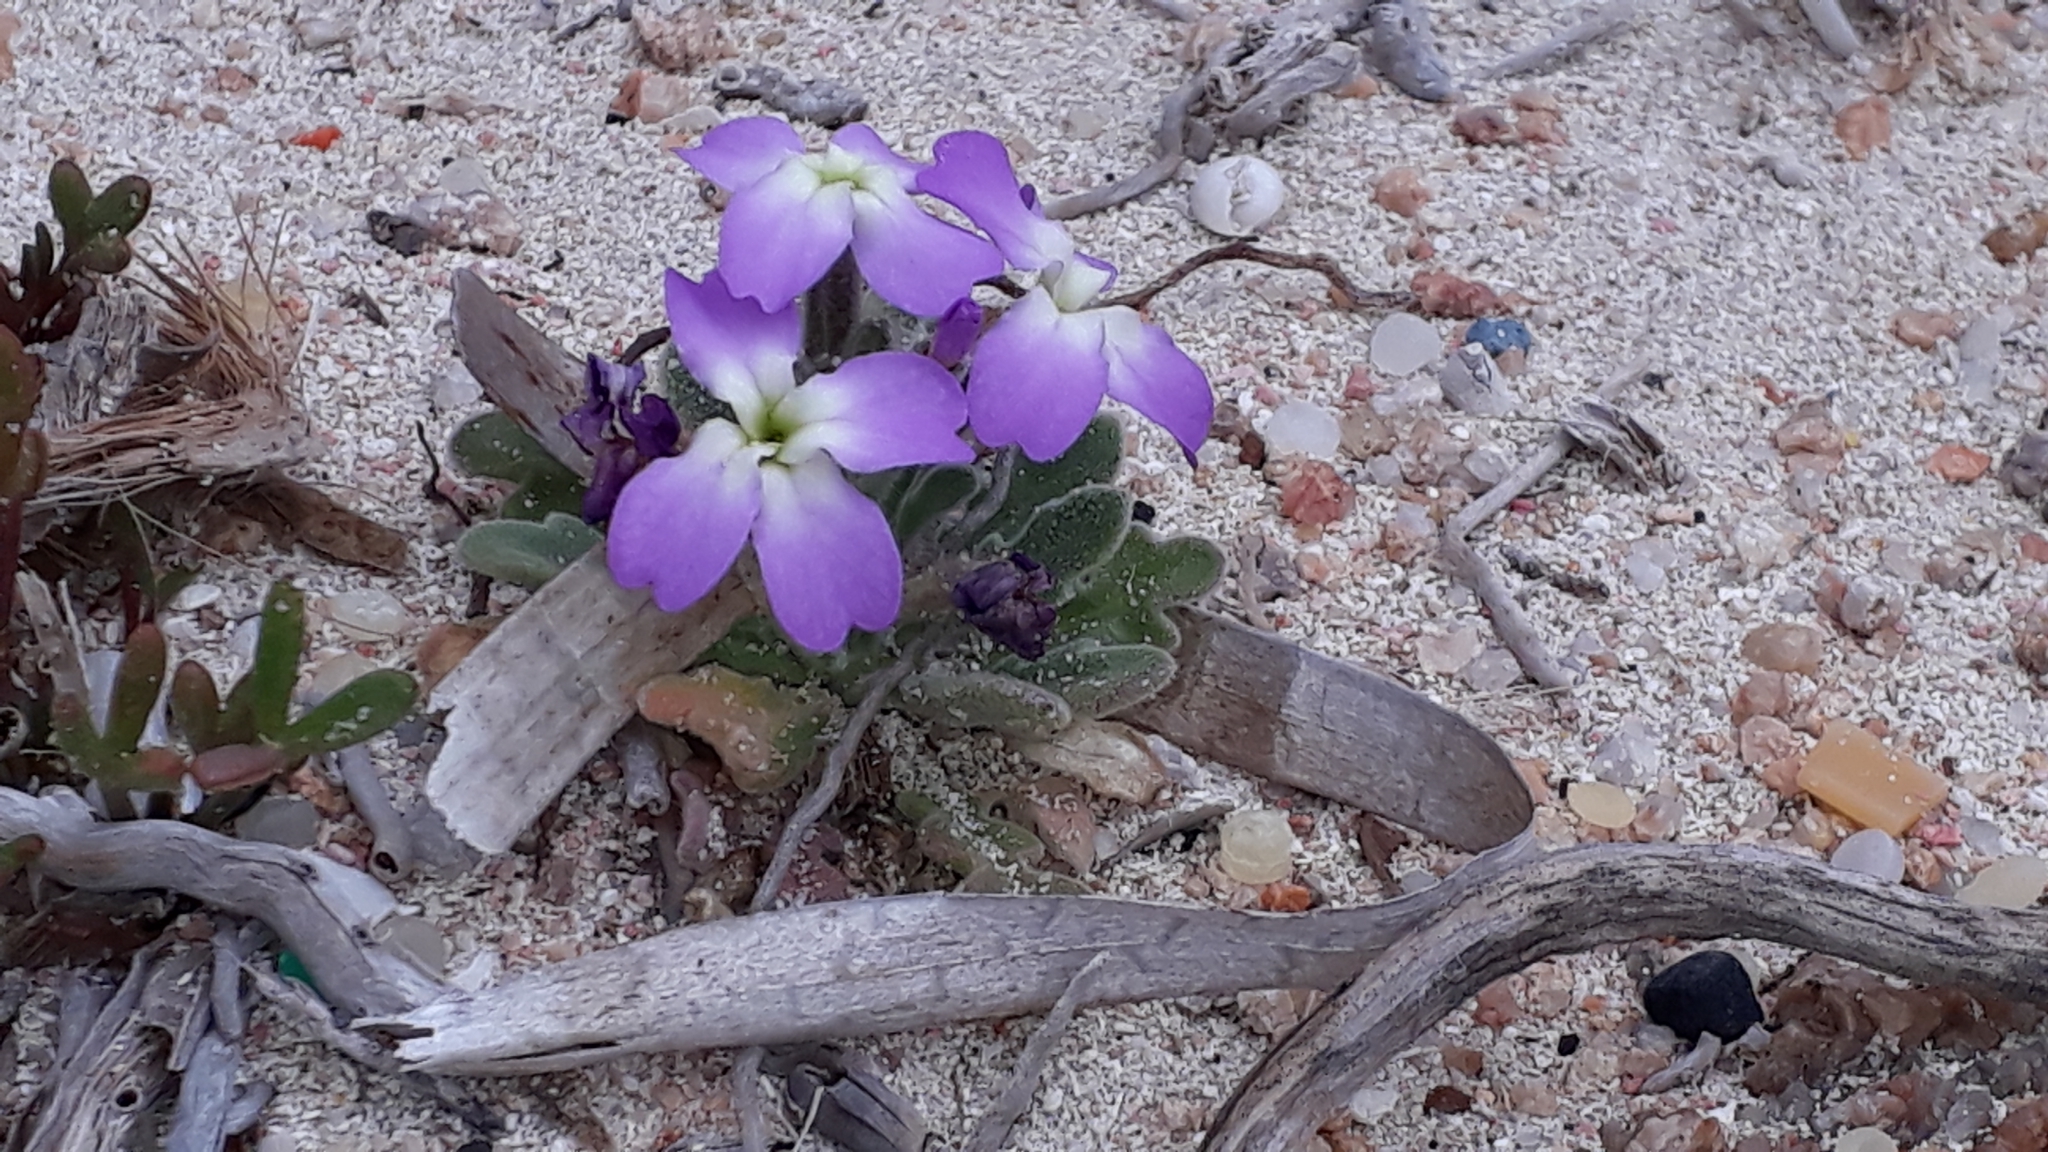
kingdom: Plantae
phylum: Tracheophyta
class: Magnoliopsida
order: Brassicales
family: Brassicaceae
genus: Matthiola
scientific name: Matthiola tricuspidata
